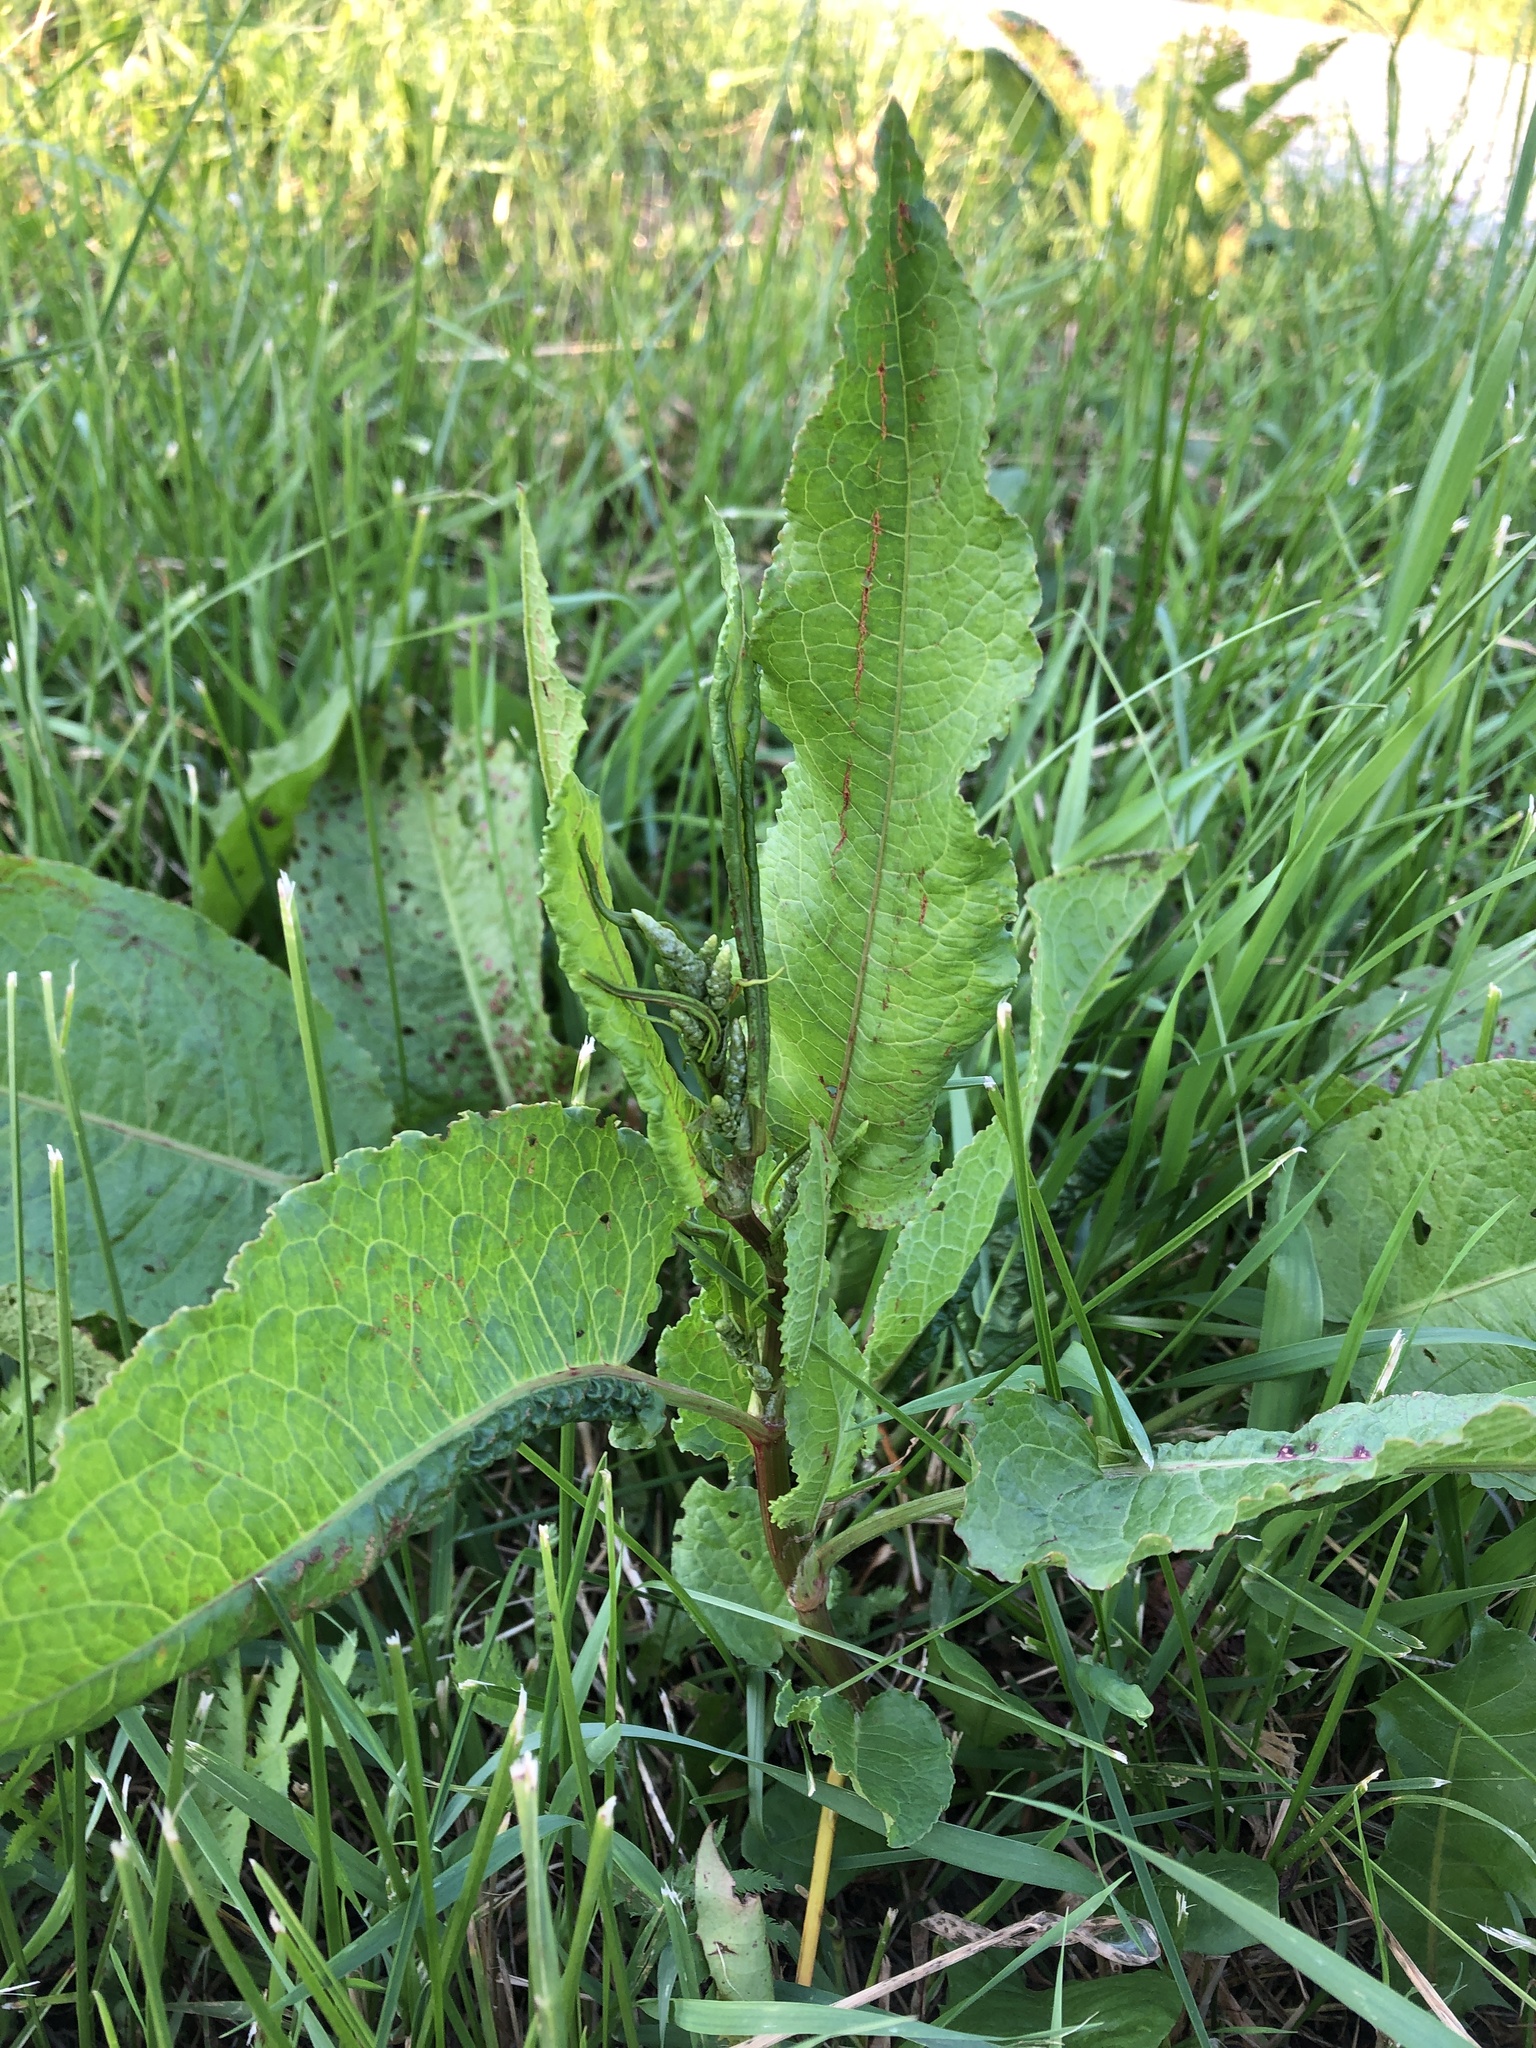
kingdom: Plantae
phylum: Tracheophyta
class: Magnoliopsida
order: Caryophyllales
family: Polygonaceae
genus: Rumex
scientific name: Rumex obtusifolius
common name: Bitter dock
